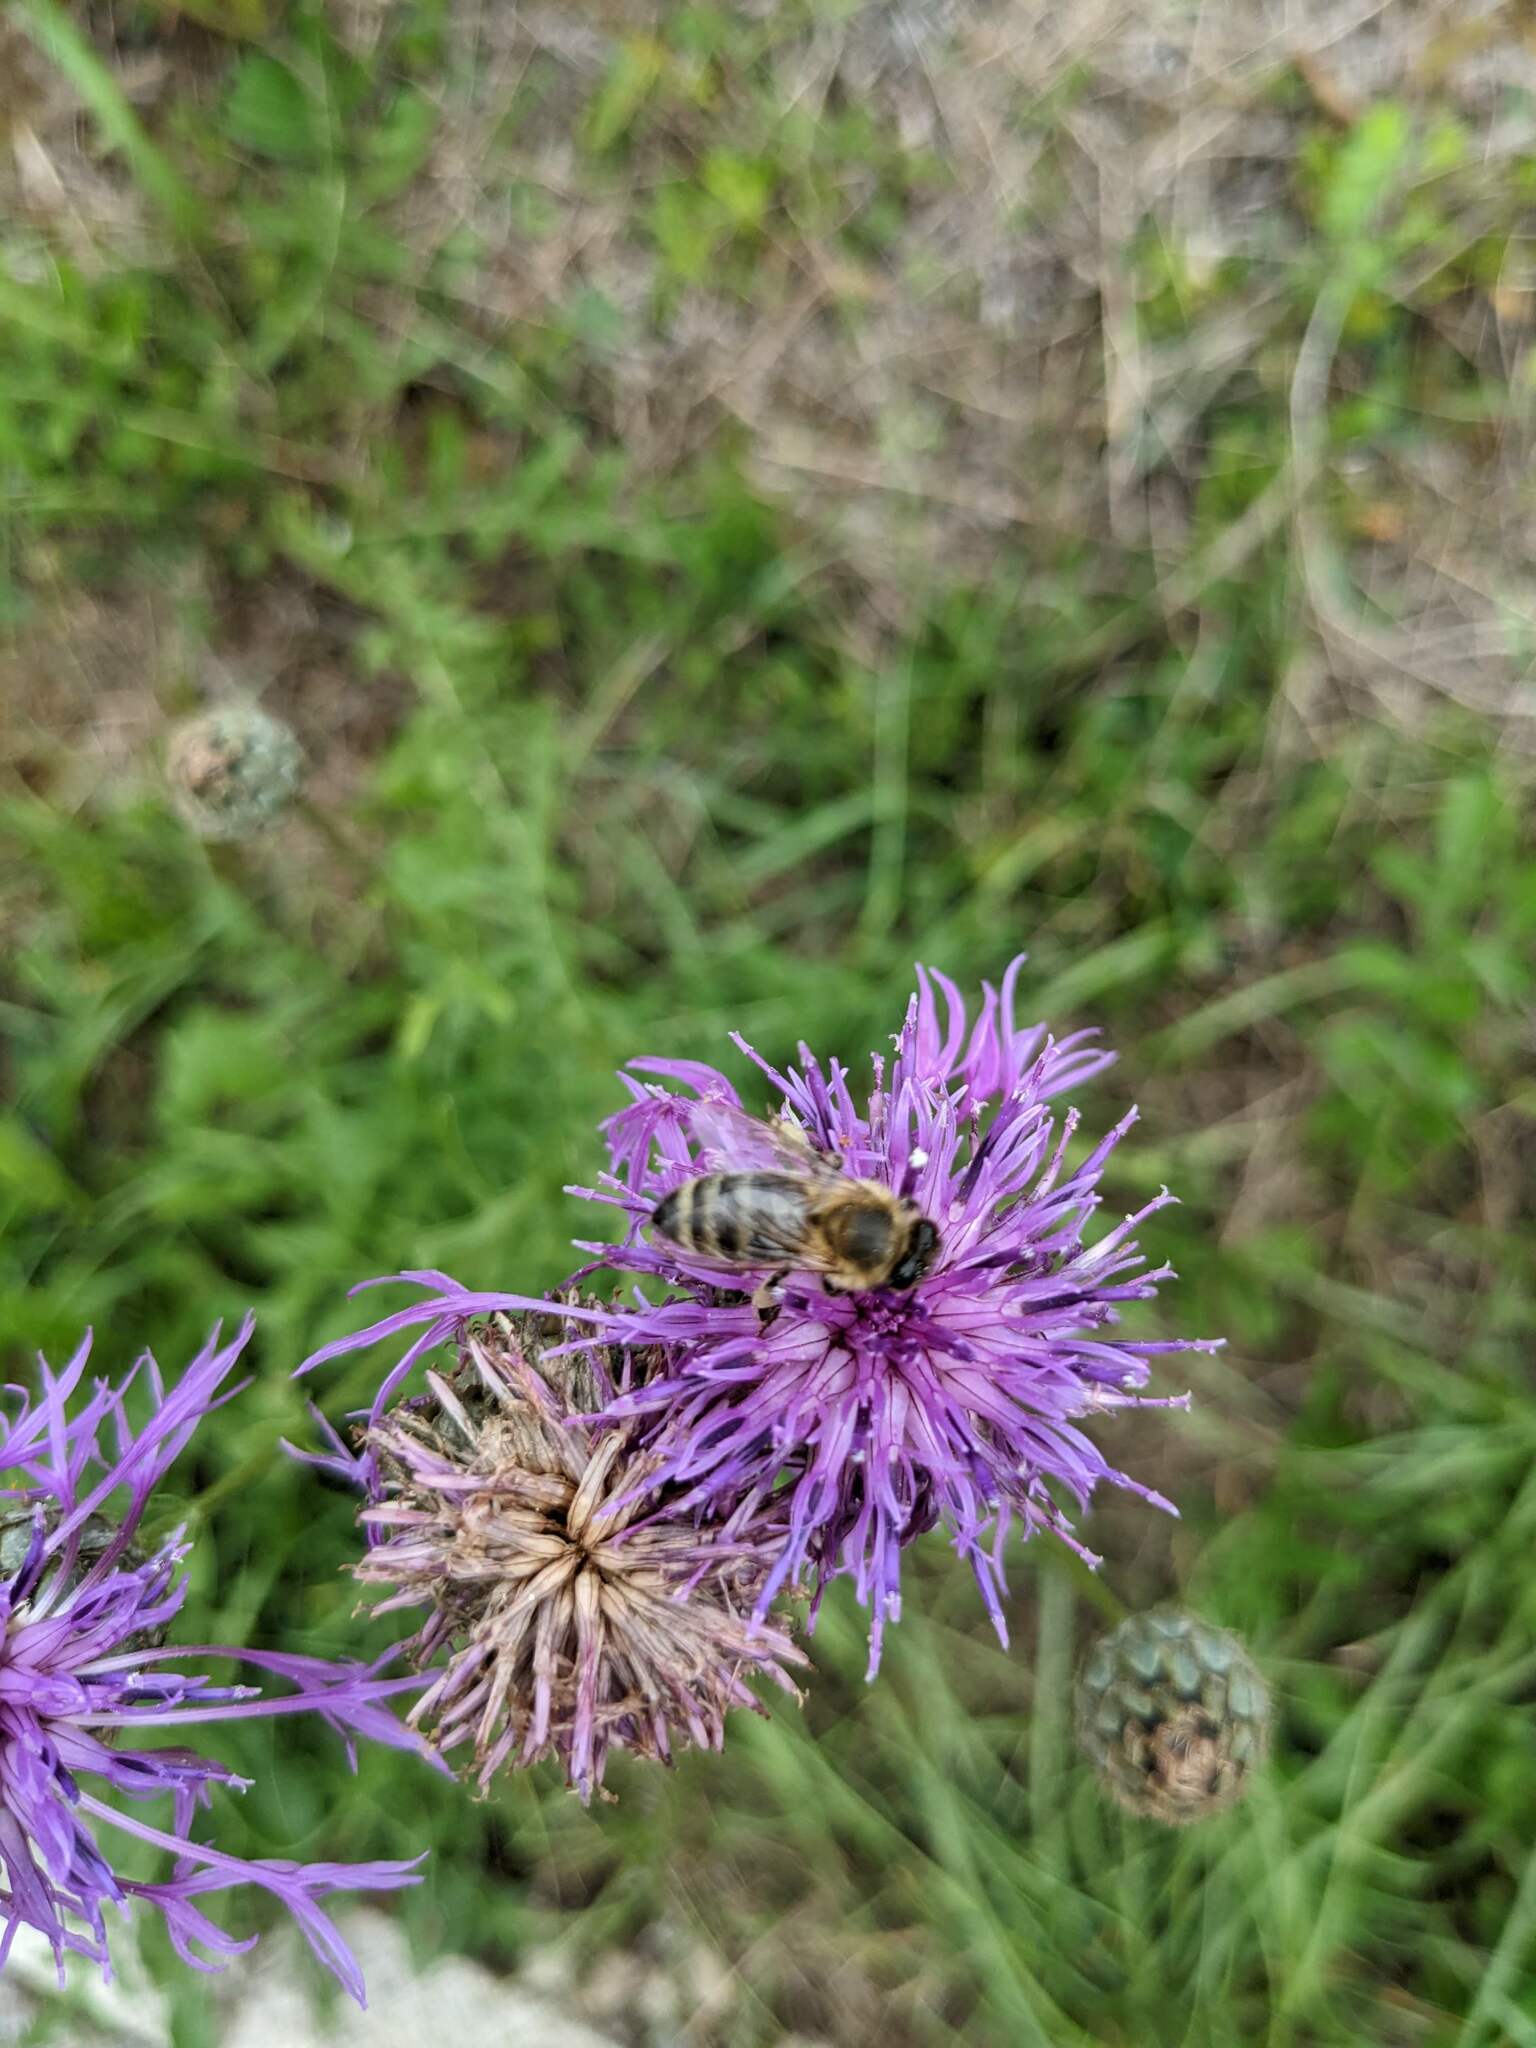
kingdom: Plantae
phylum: Tracheophyta
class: Magnoliopsida
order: Asterales
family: Asteraceae
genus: Centaurea
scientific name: Centaurea scabiosa
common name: Greater knapweed
